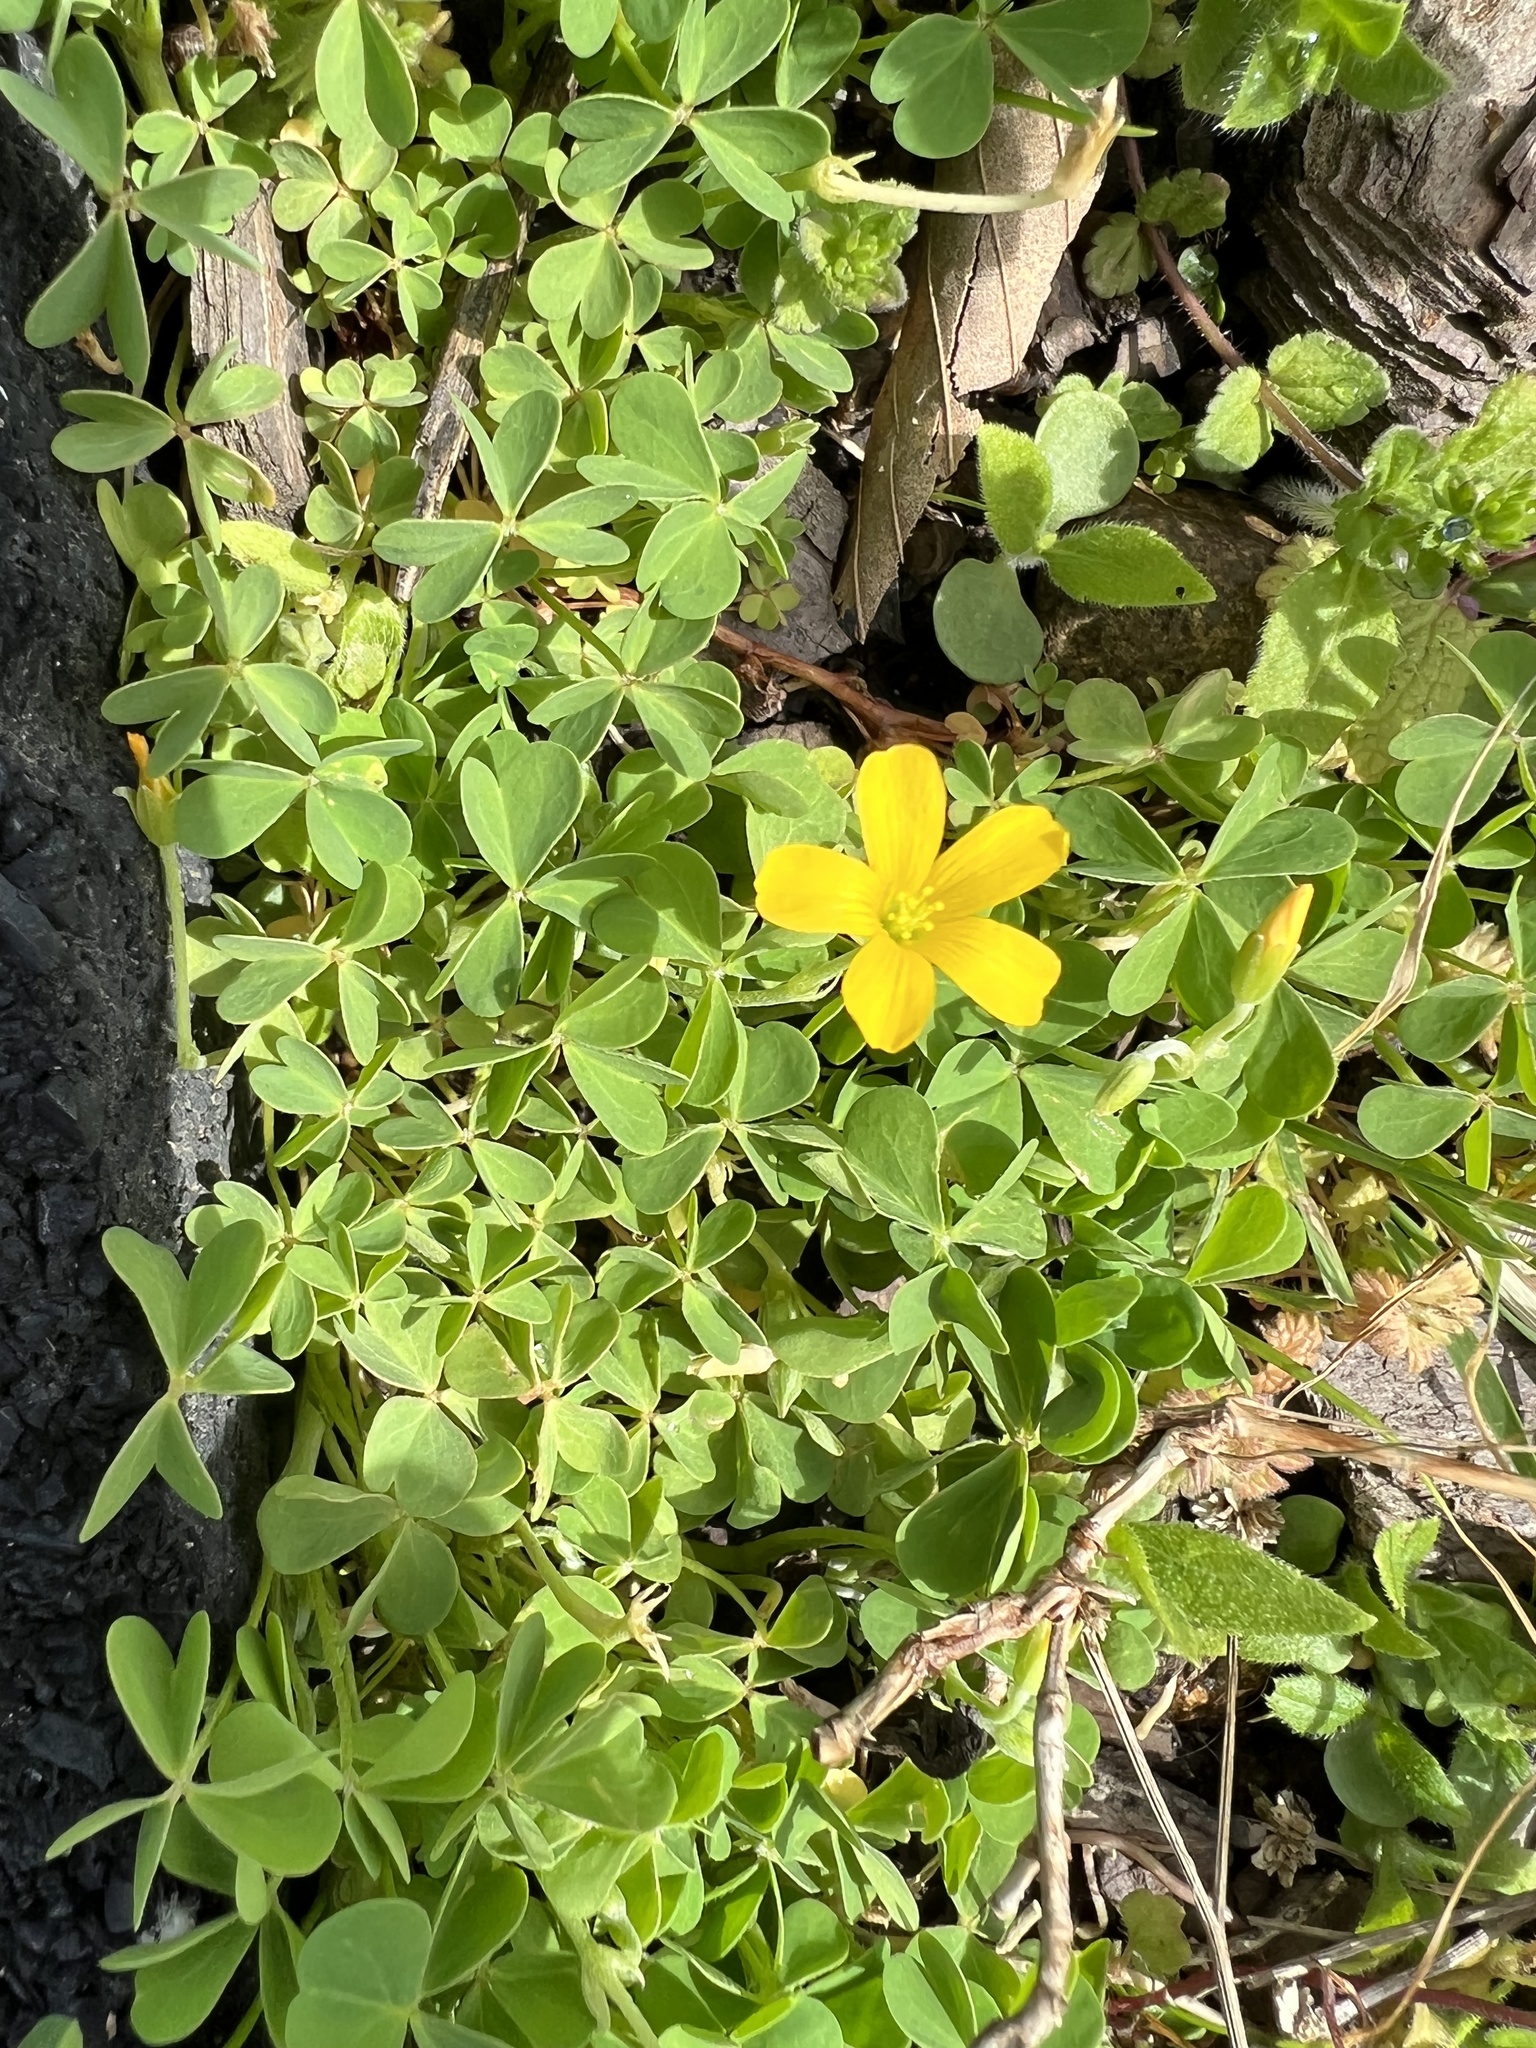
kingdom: Plantae
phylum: Tracheophyta
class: Magnoliopsida
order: Oxalidales
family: Oxalidaceae
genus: Oxalis
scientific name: Oxalis dillenii
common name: Sussex yellow-sorrel
